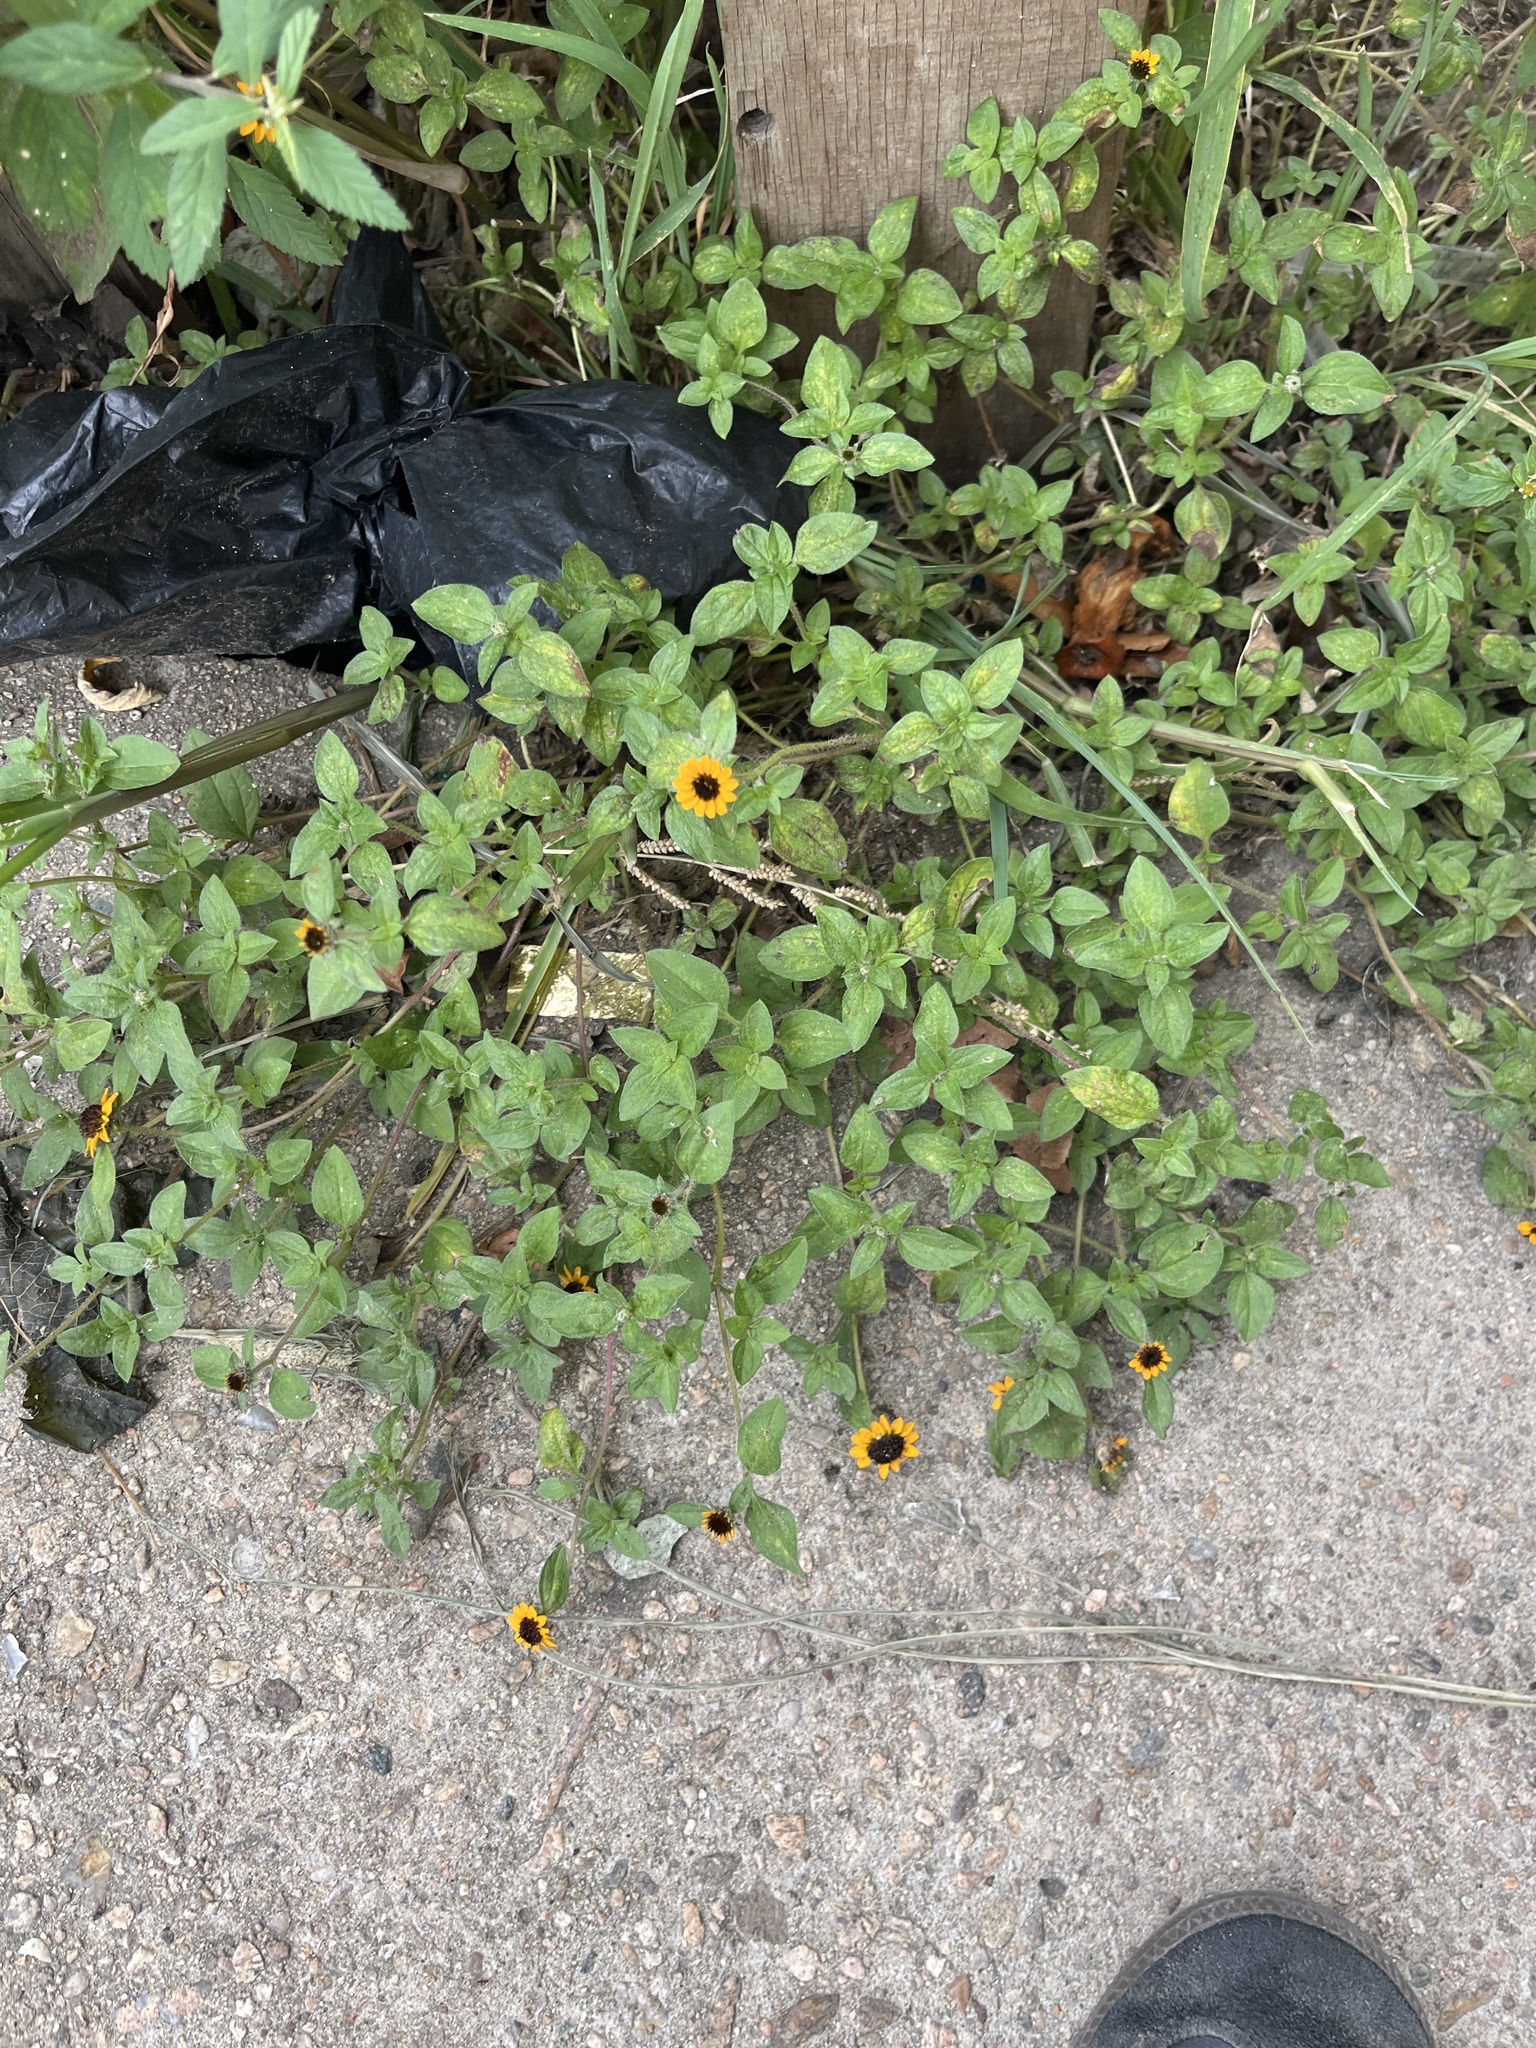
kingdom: Plantae
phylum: Tracheophyta
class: Magnoliopsida
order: Asterales
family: Asteraceae
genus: Sanvitalia
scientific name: Sanvitalia procumbens
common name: Mexican creeping zinnia
